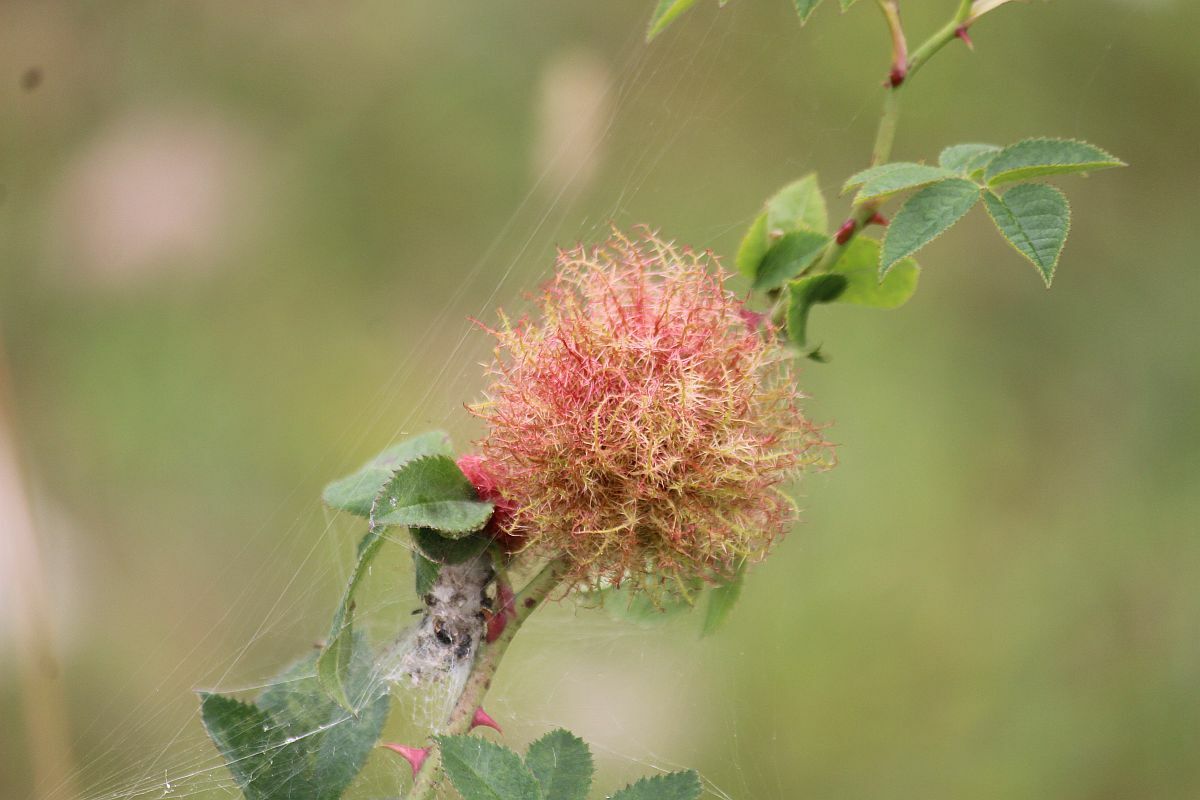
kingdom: Animalia
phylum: Arthropoda
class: Insecta
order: Hymenoptera
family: Cynipidae
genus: Diplolepis
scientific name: Diplolepis rosae
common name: Bedeguar gall
